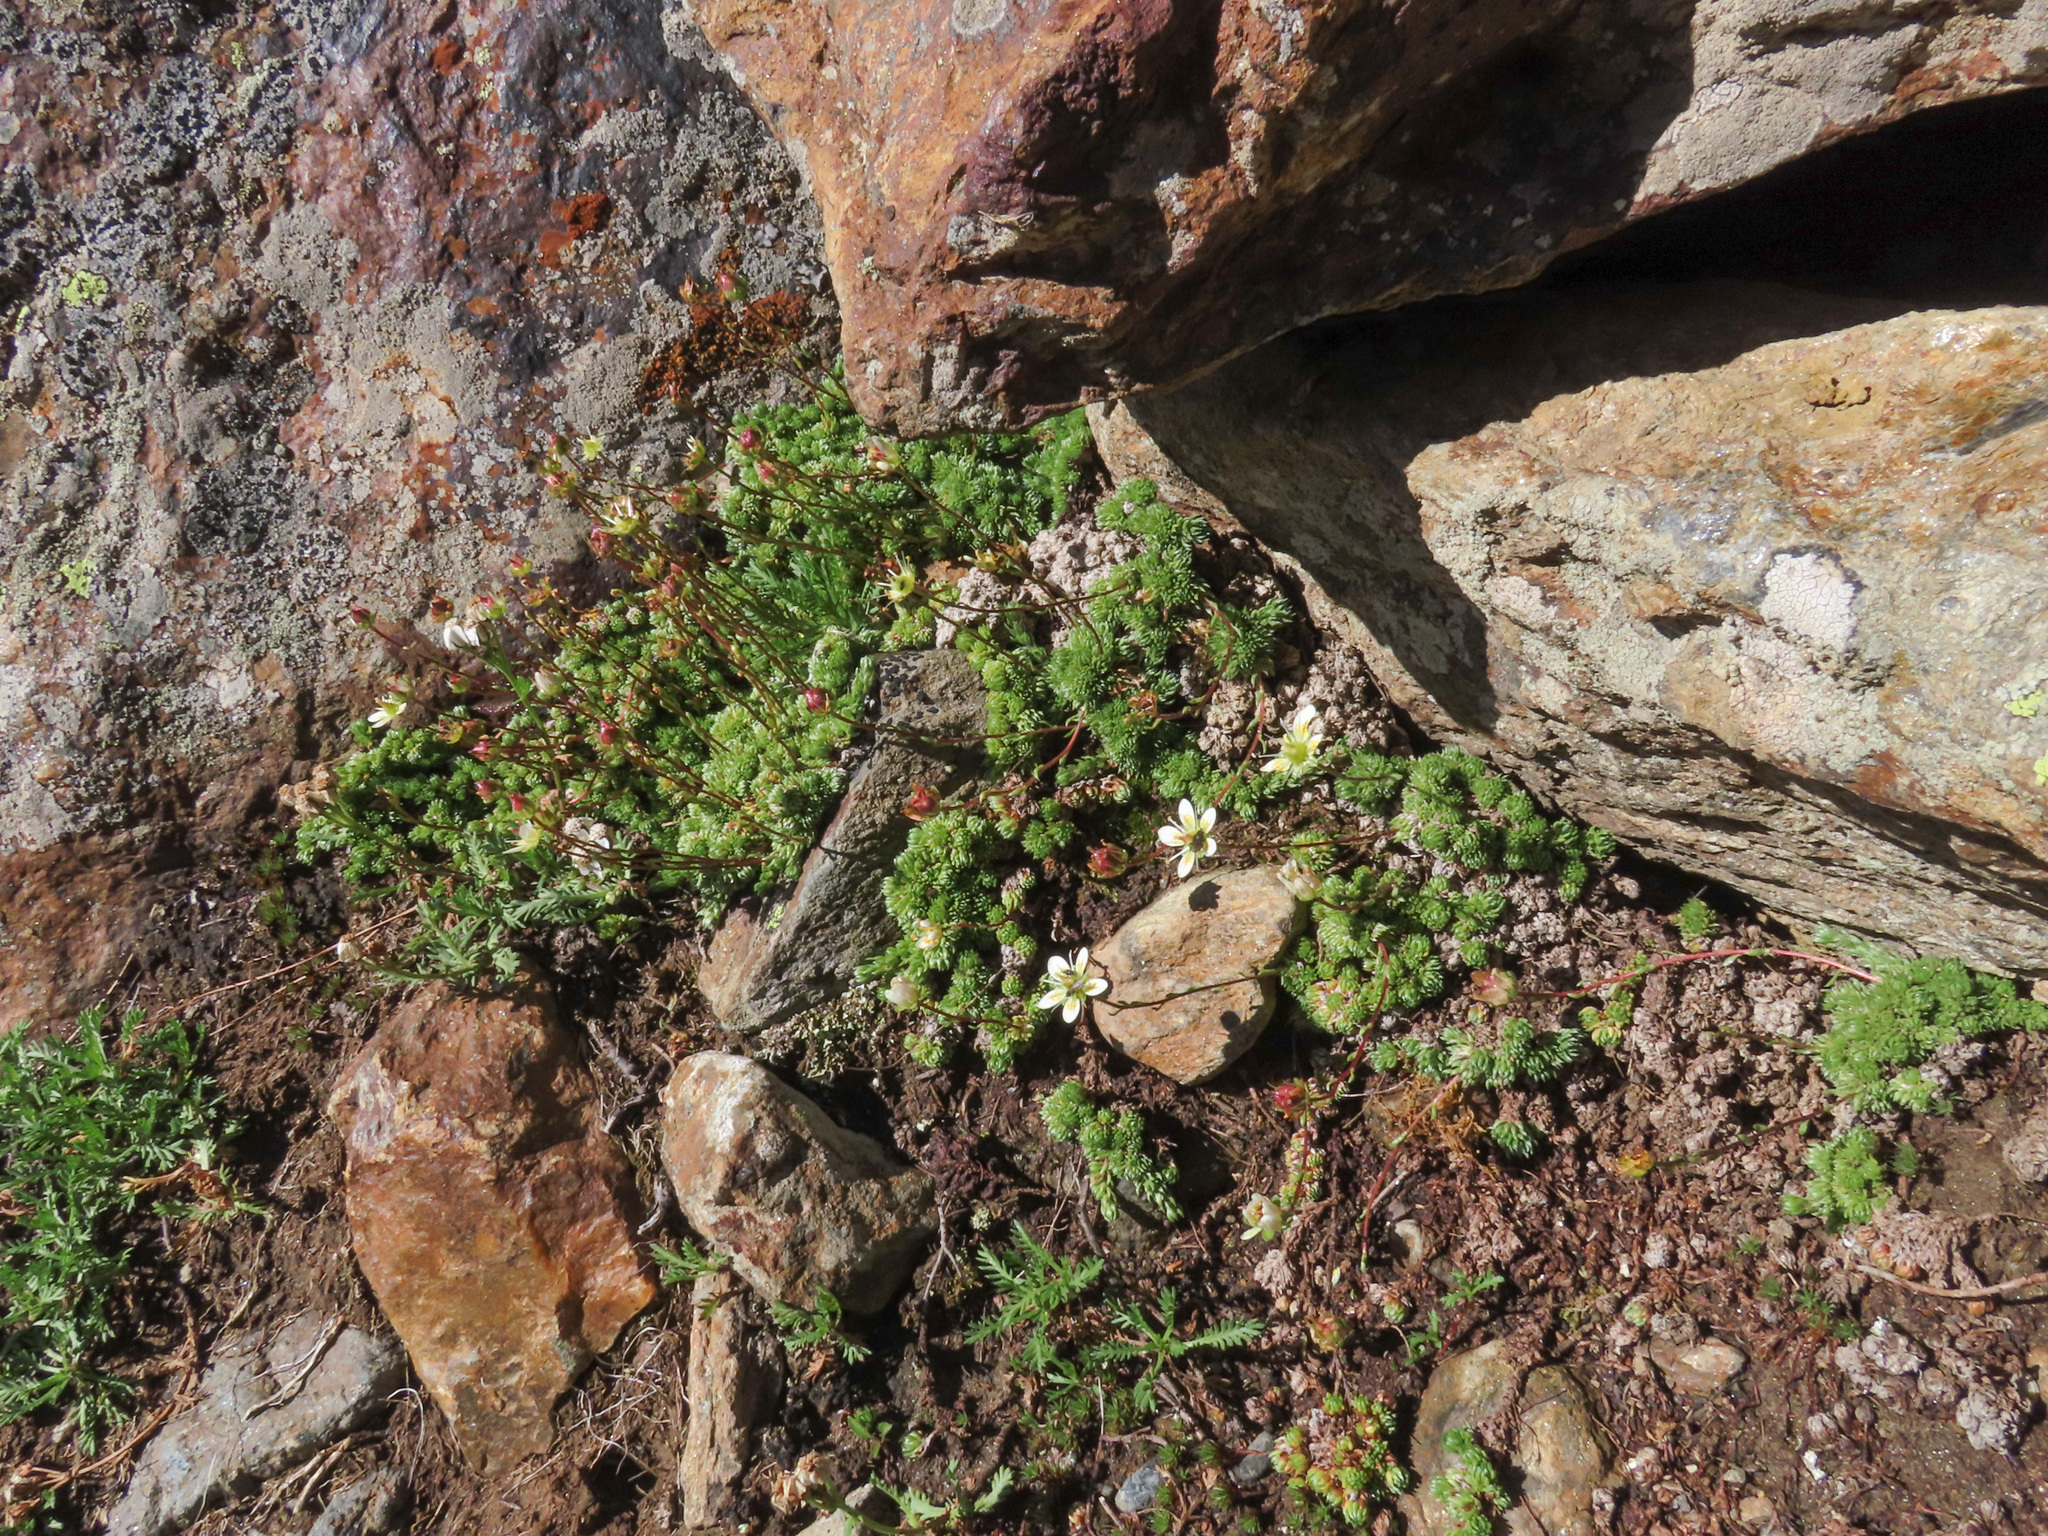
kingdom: Plantae
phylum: Tracheophyta
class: Magnoliopsida
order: Saxifragales
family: Saxifragaceae
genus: Saxifraga
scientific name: Saxifraga bryoides
